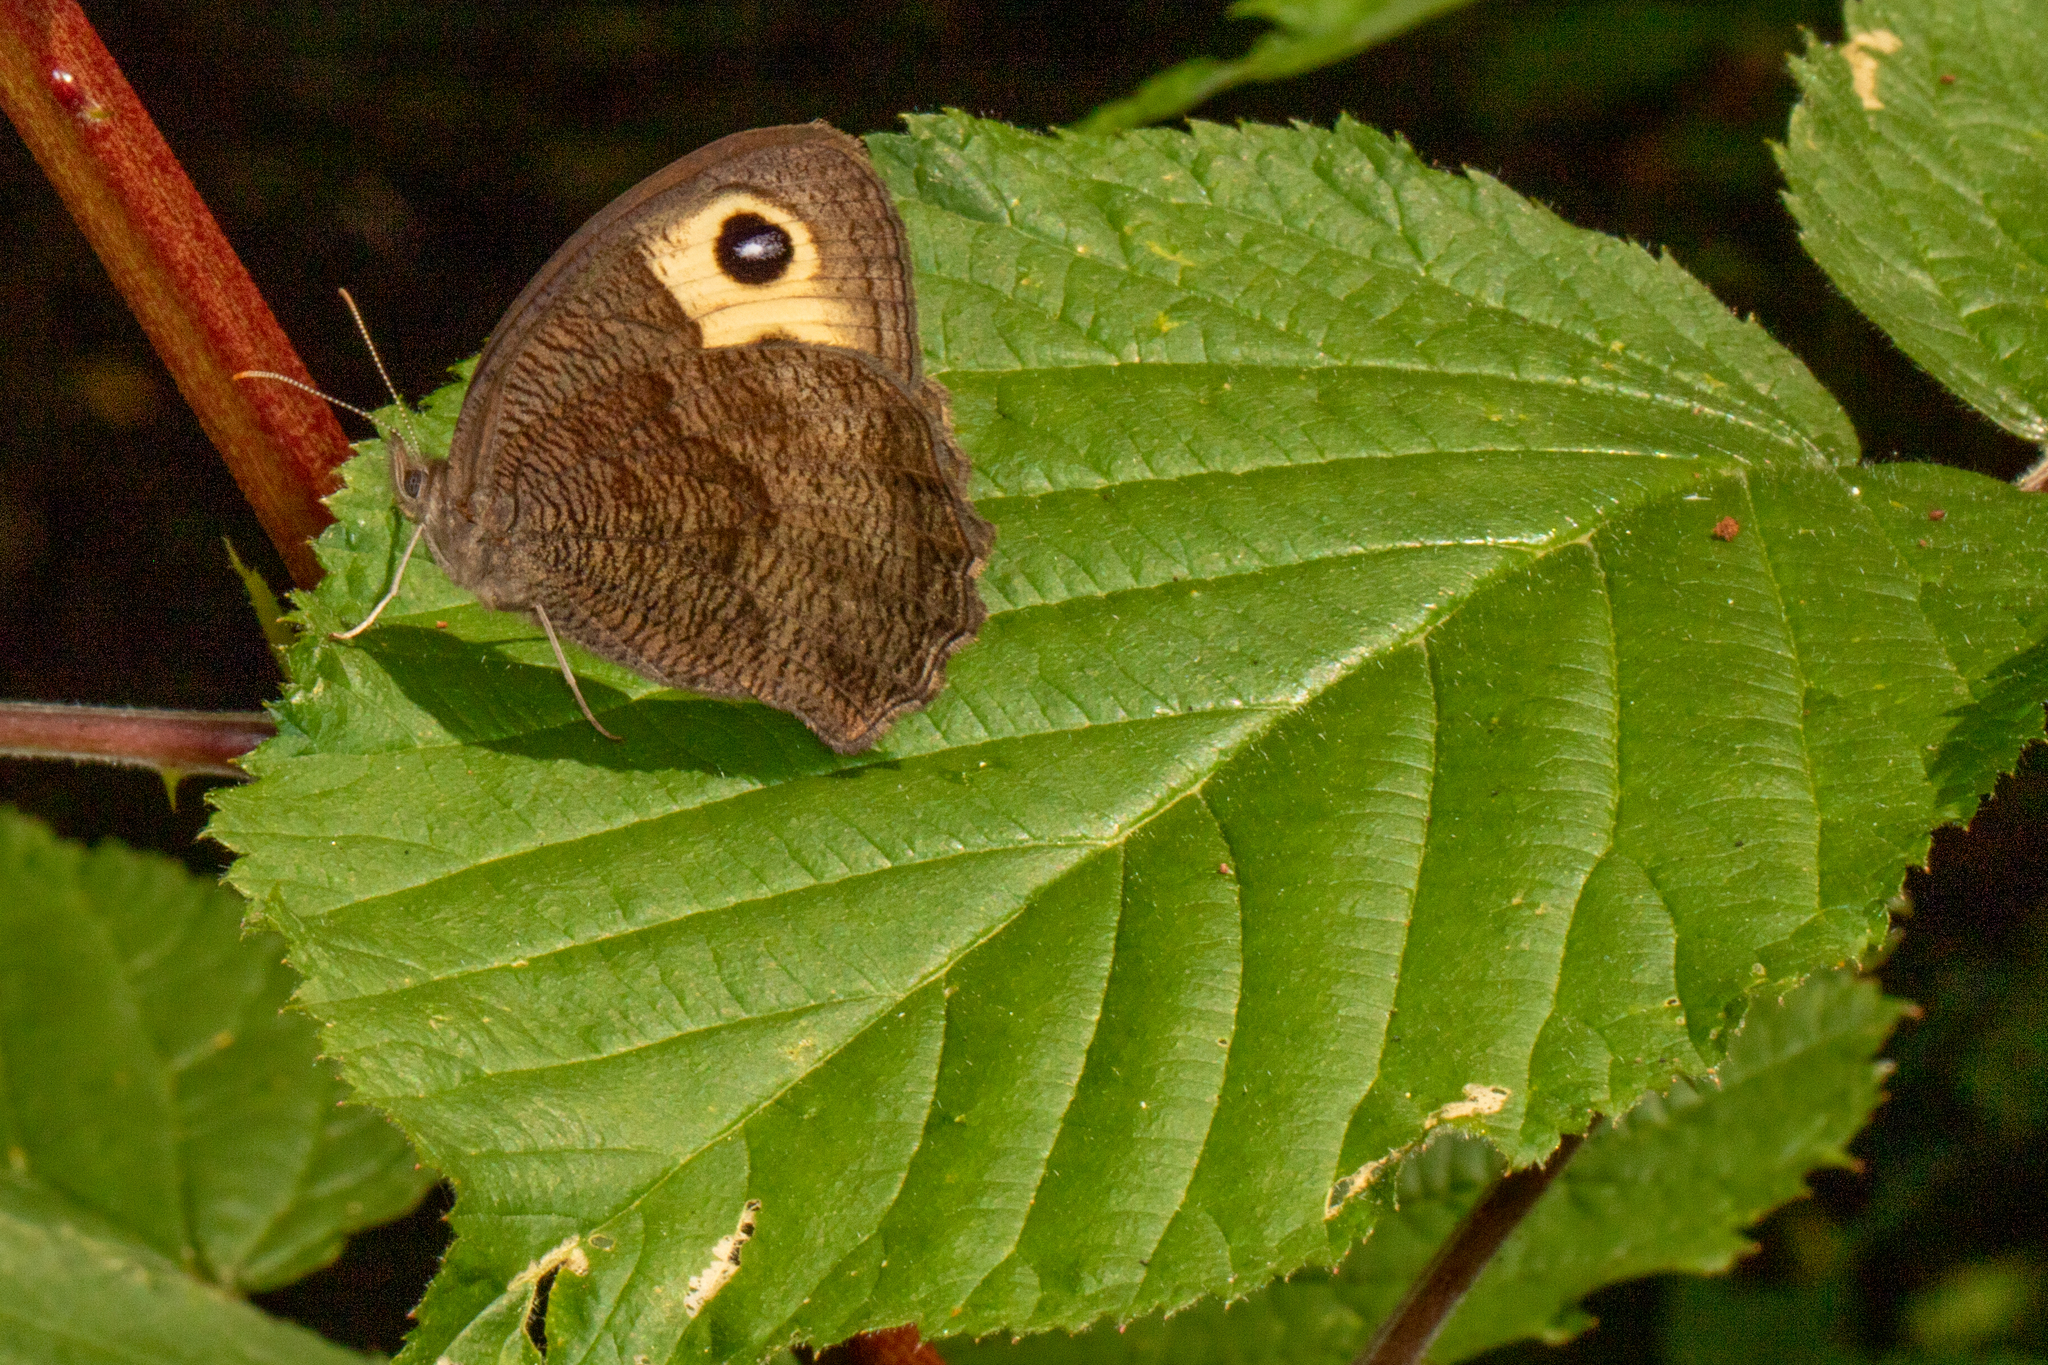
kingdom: Animalia
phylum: Arthropoda
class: Insecta
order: Lepidoptera
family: Nymphalidae
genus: Cercyonis
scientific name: Cercyonis pegala
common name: Common wood-nymph
